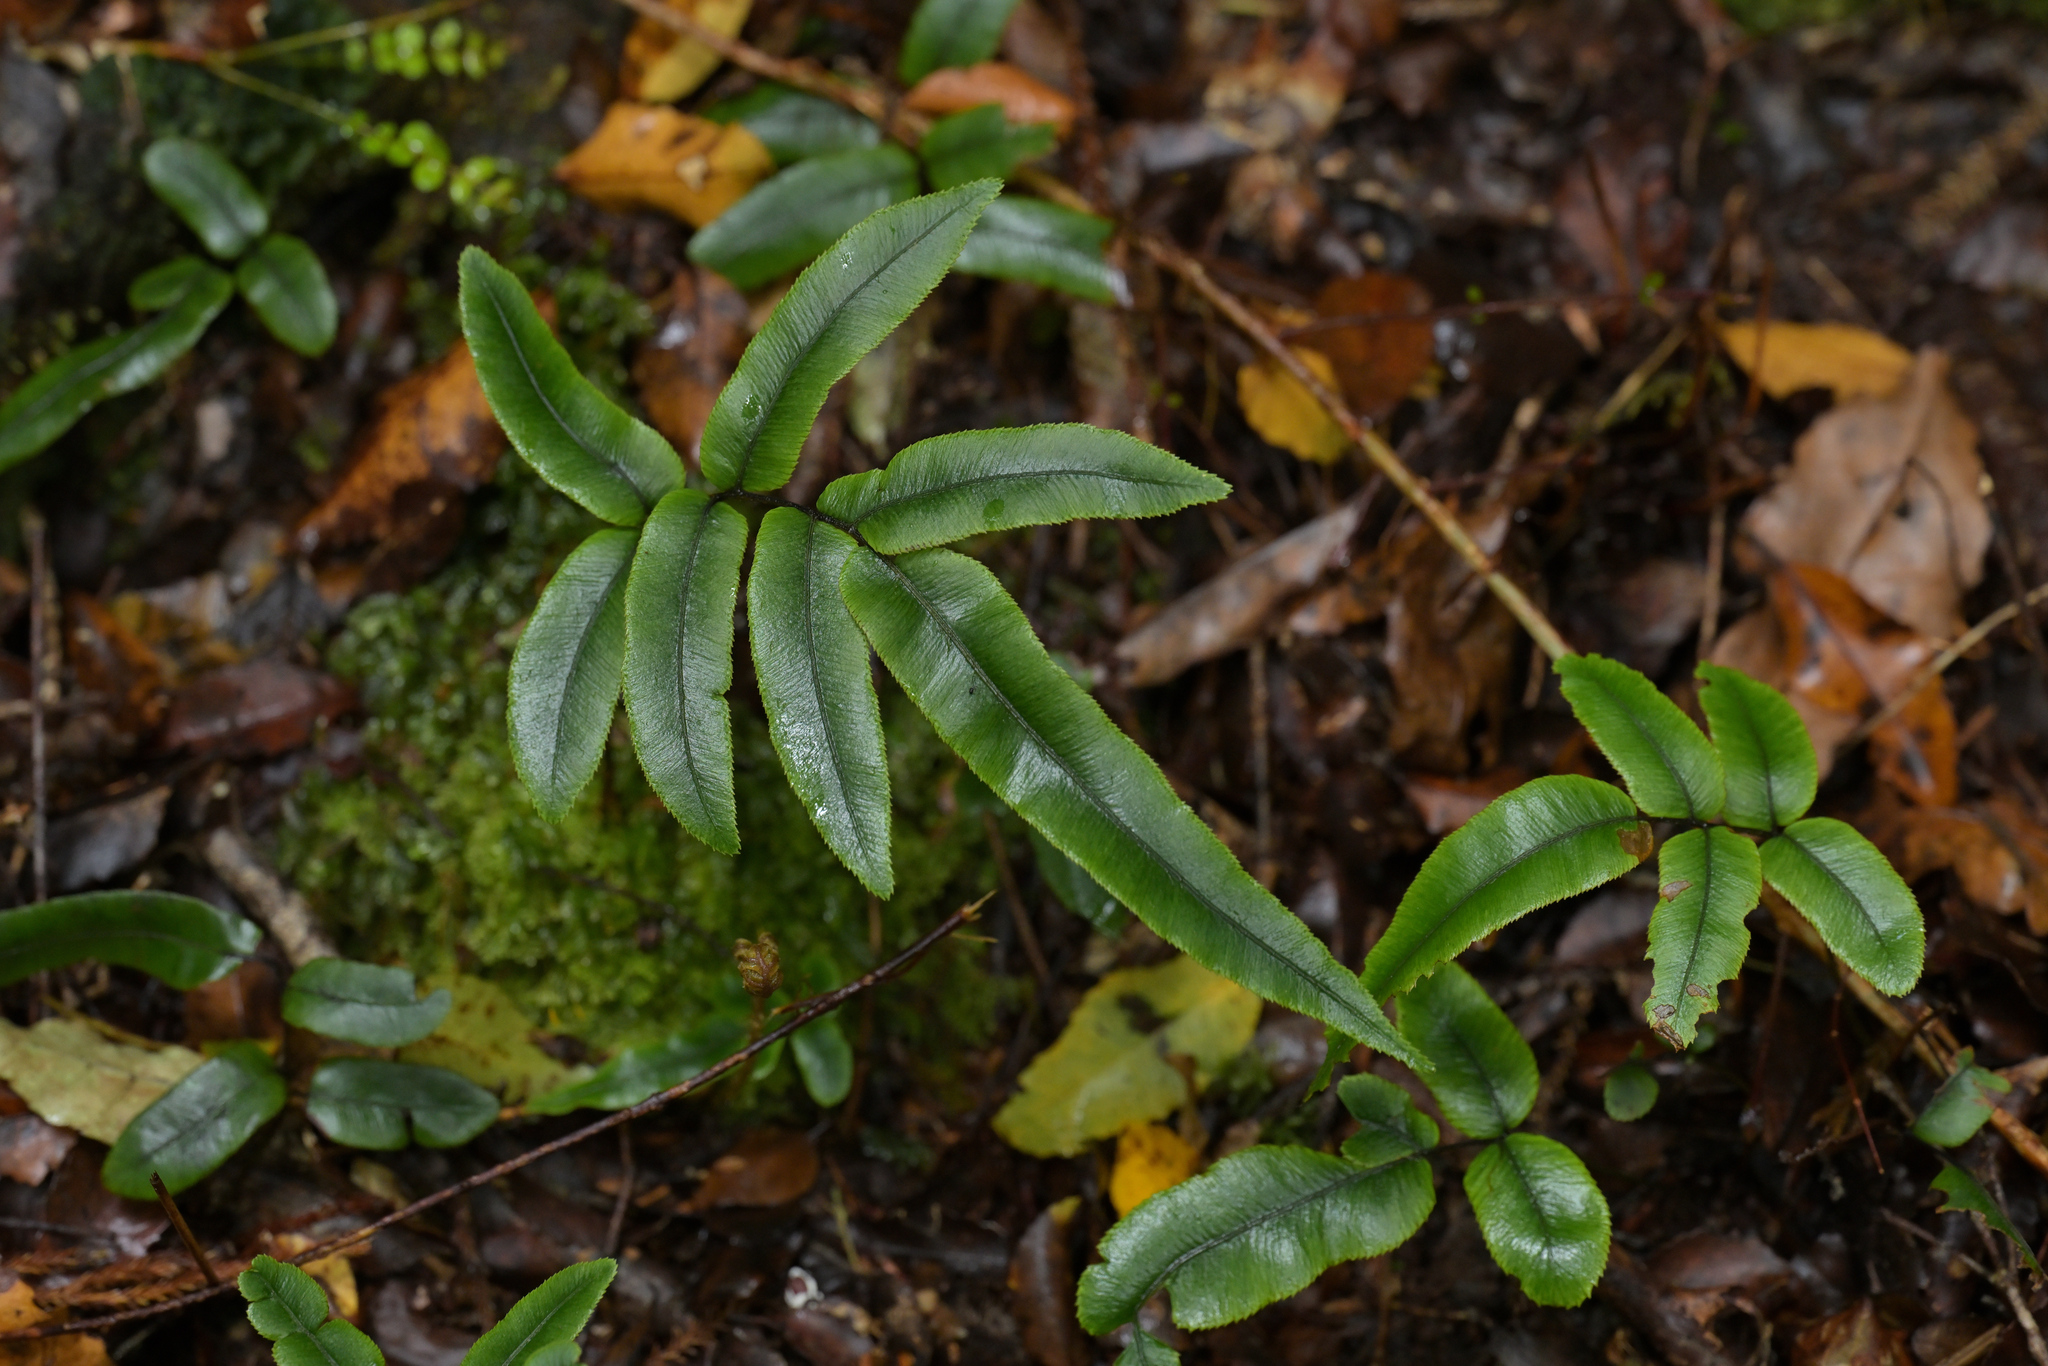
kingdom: Plantae
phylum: Tracheophyta
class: Polypodiopsida
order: Polypodiales
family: Blechnaceae
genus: Parablechnum
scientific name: Parablechnum procerum
